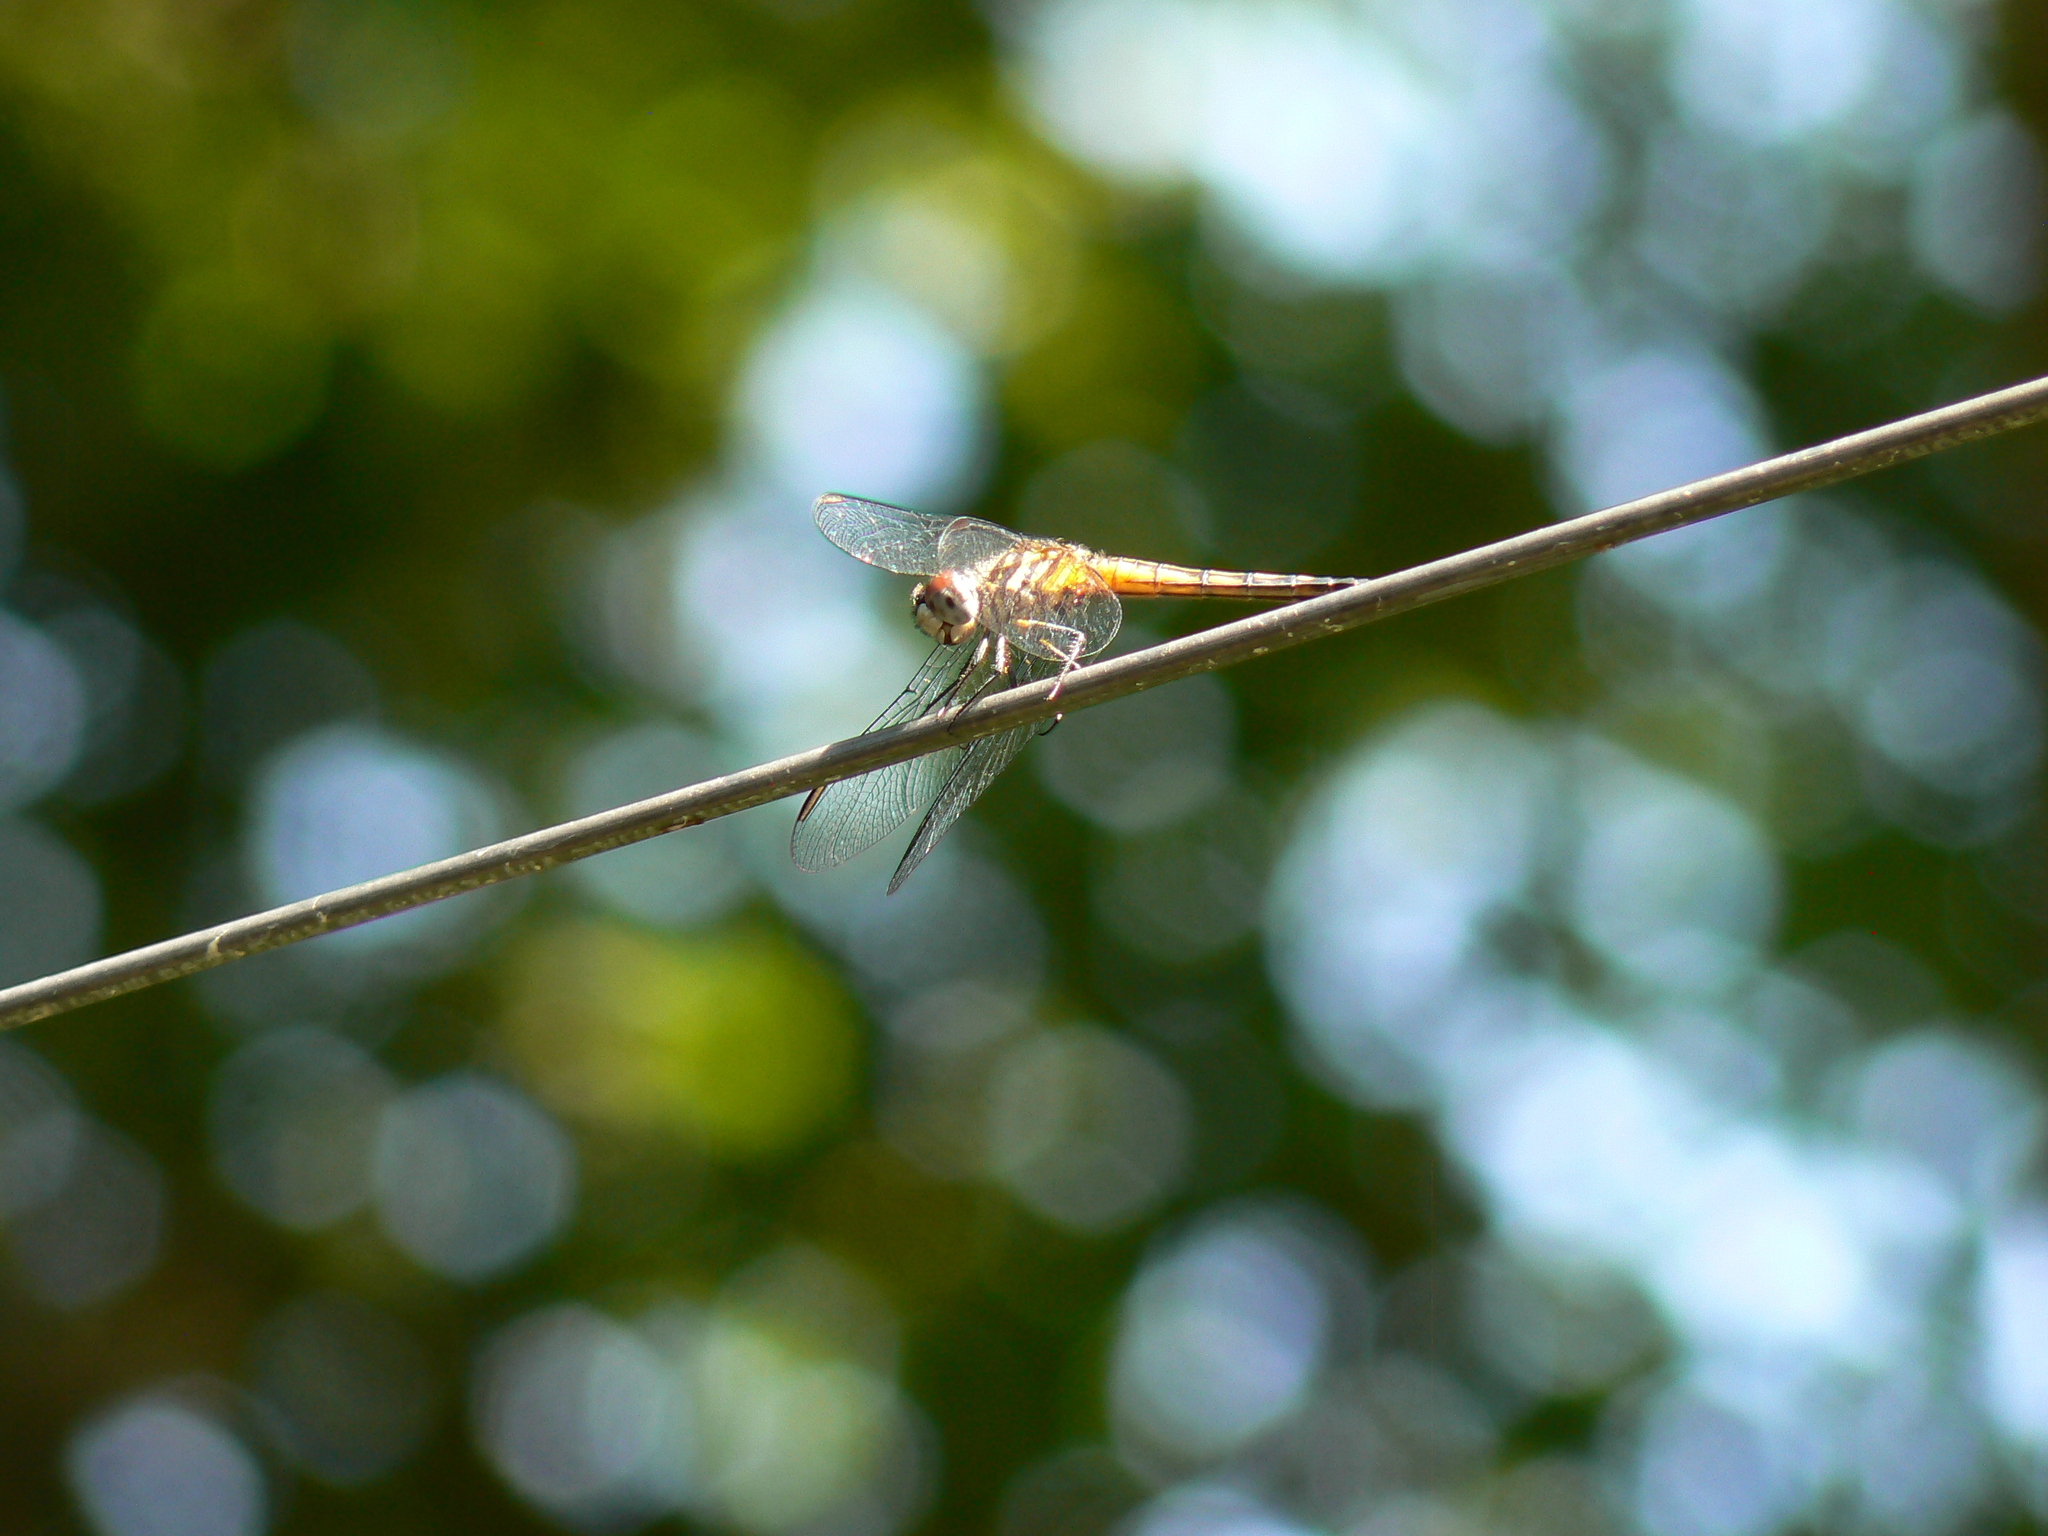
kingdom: Animalia
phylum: Arthropoda
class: Insecta
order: Odonata
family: Libellulidae
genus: Pachydiplax
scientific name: Pachydiplax longipennis
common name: Blue dasher
